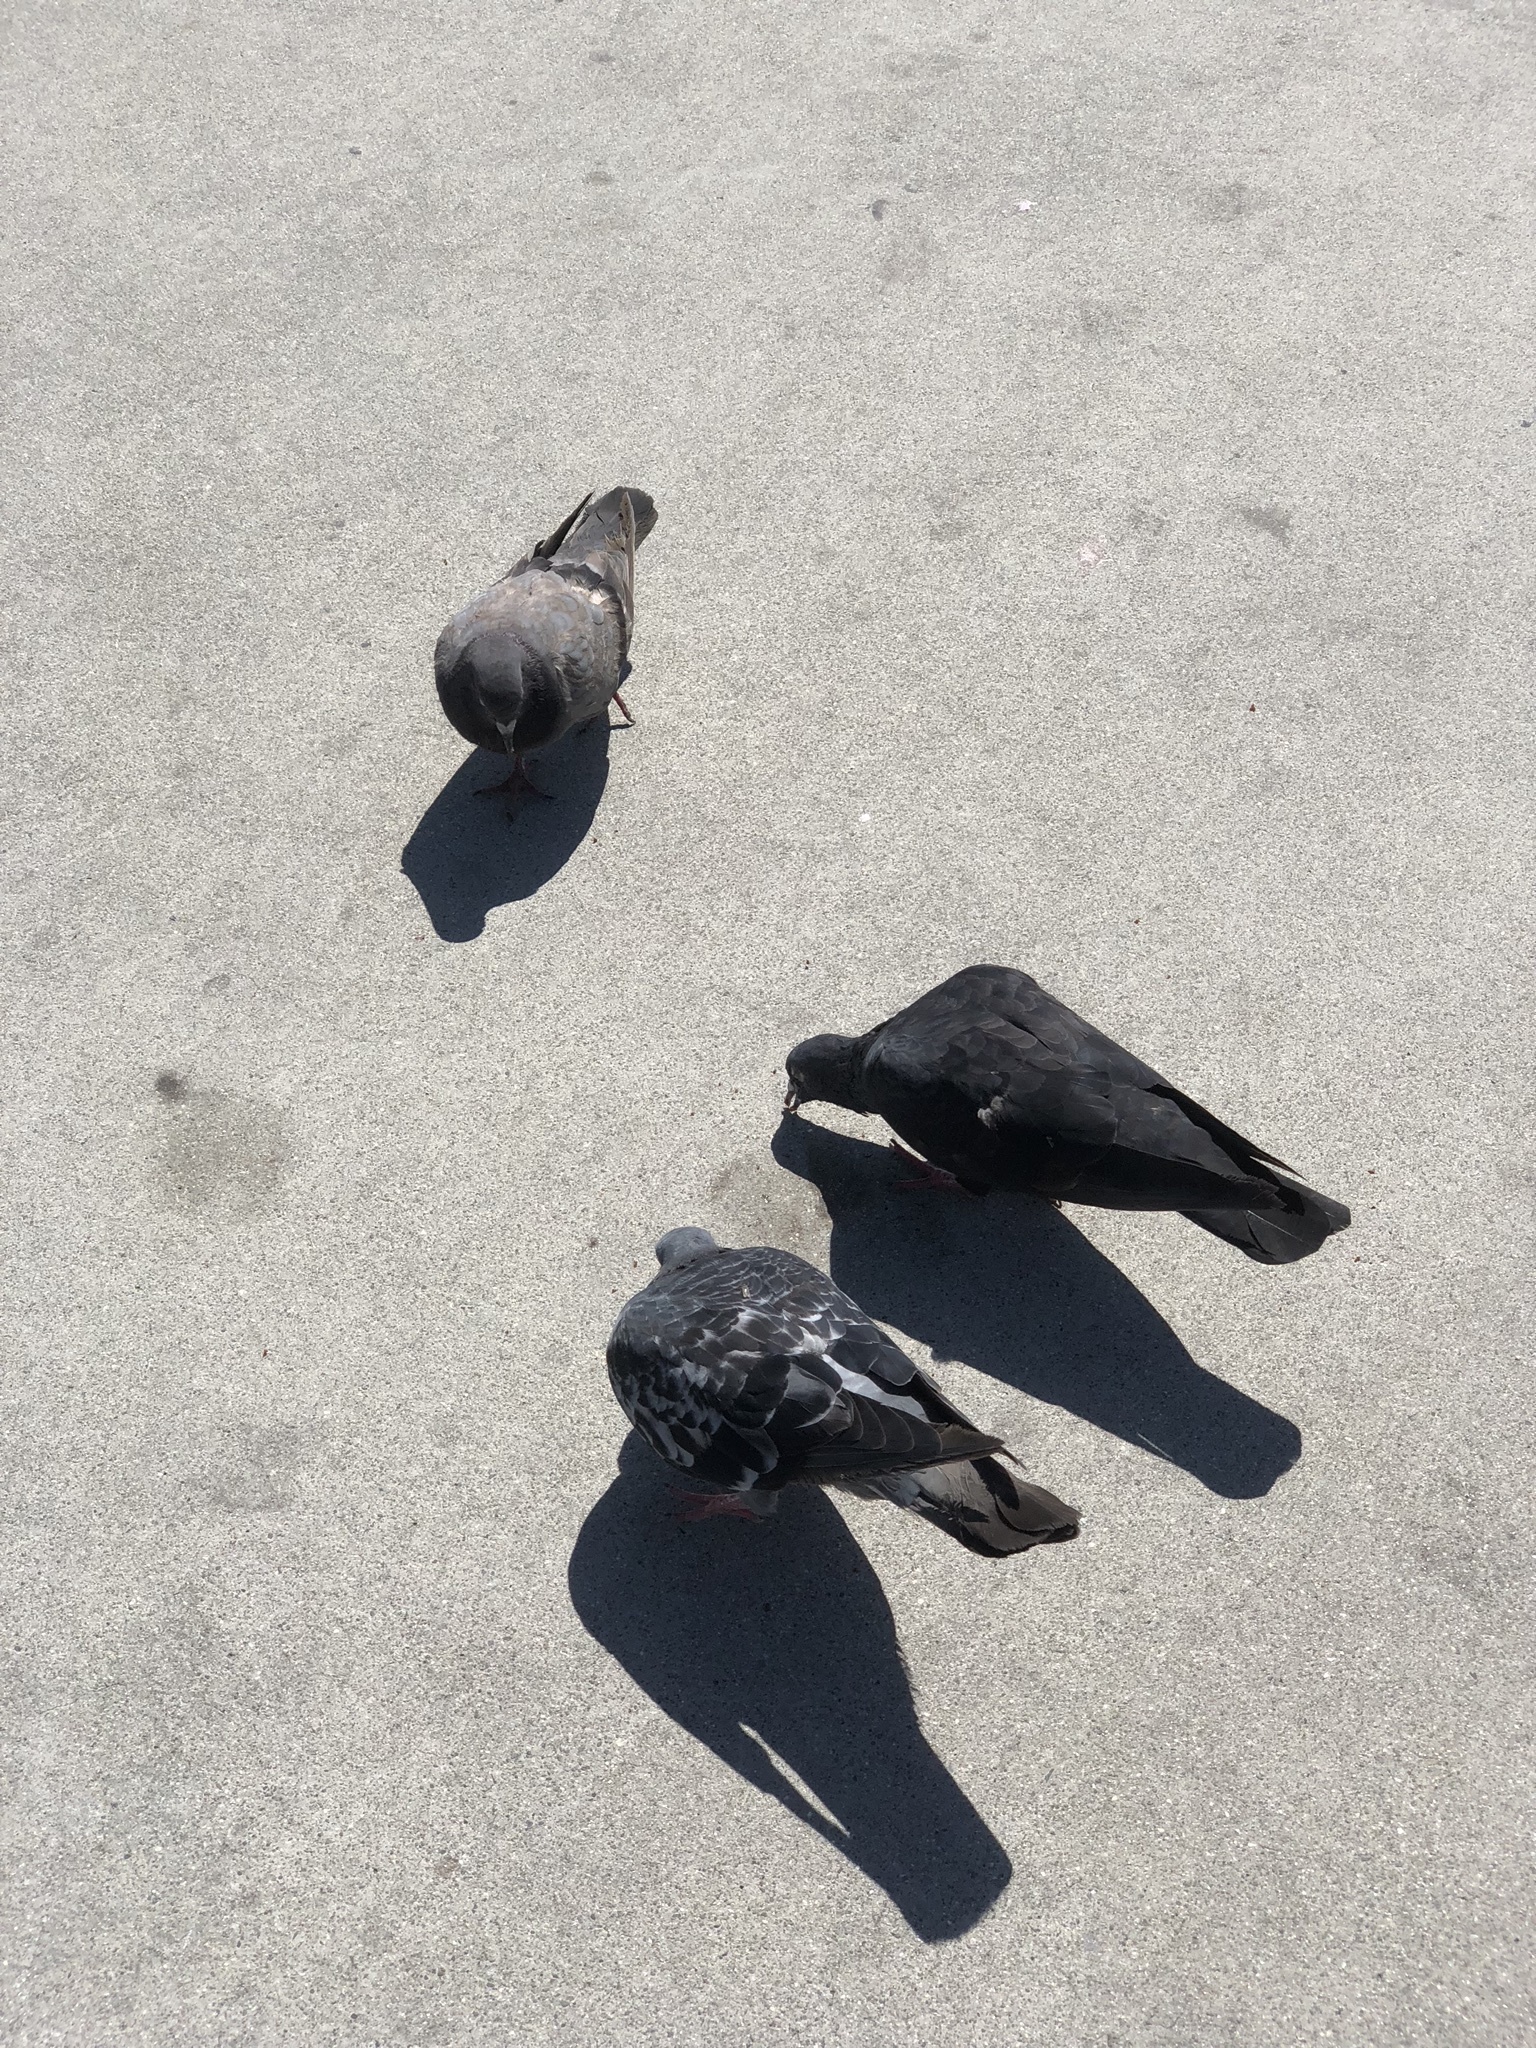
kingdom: Animalia
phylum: Chordata
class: Aves
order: Columbiformes
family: Columbidae
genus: Columba
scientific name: Columba livia
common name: Rock pigeon
